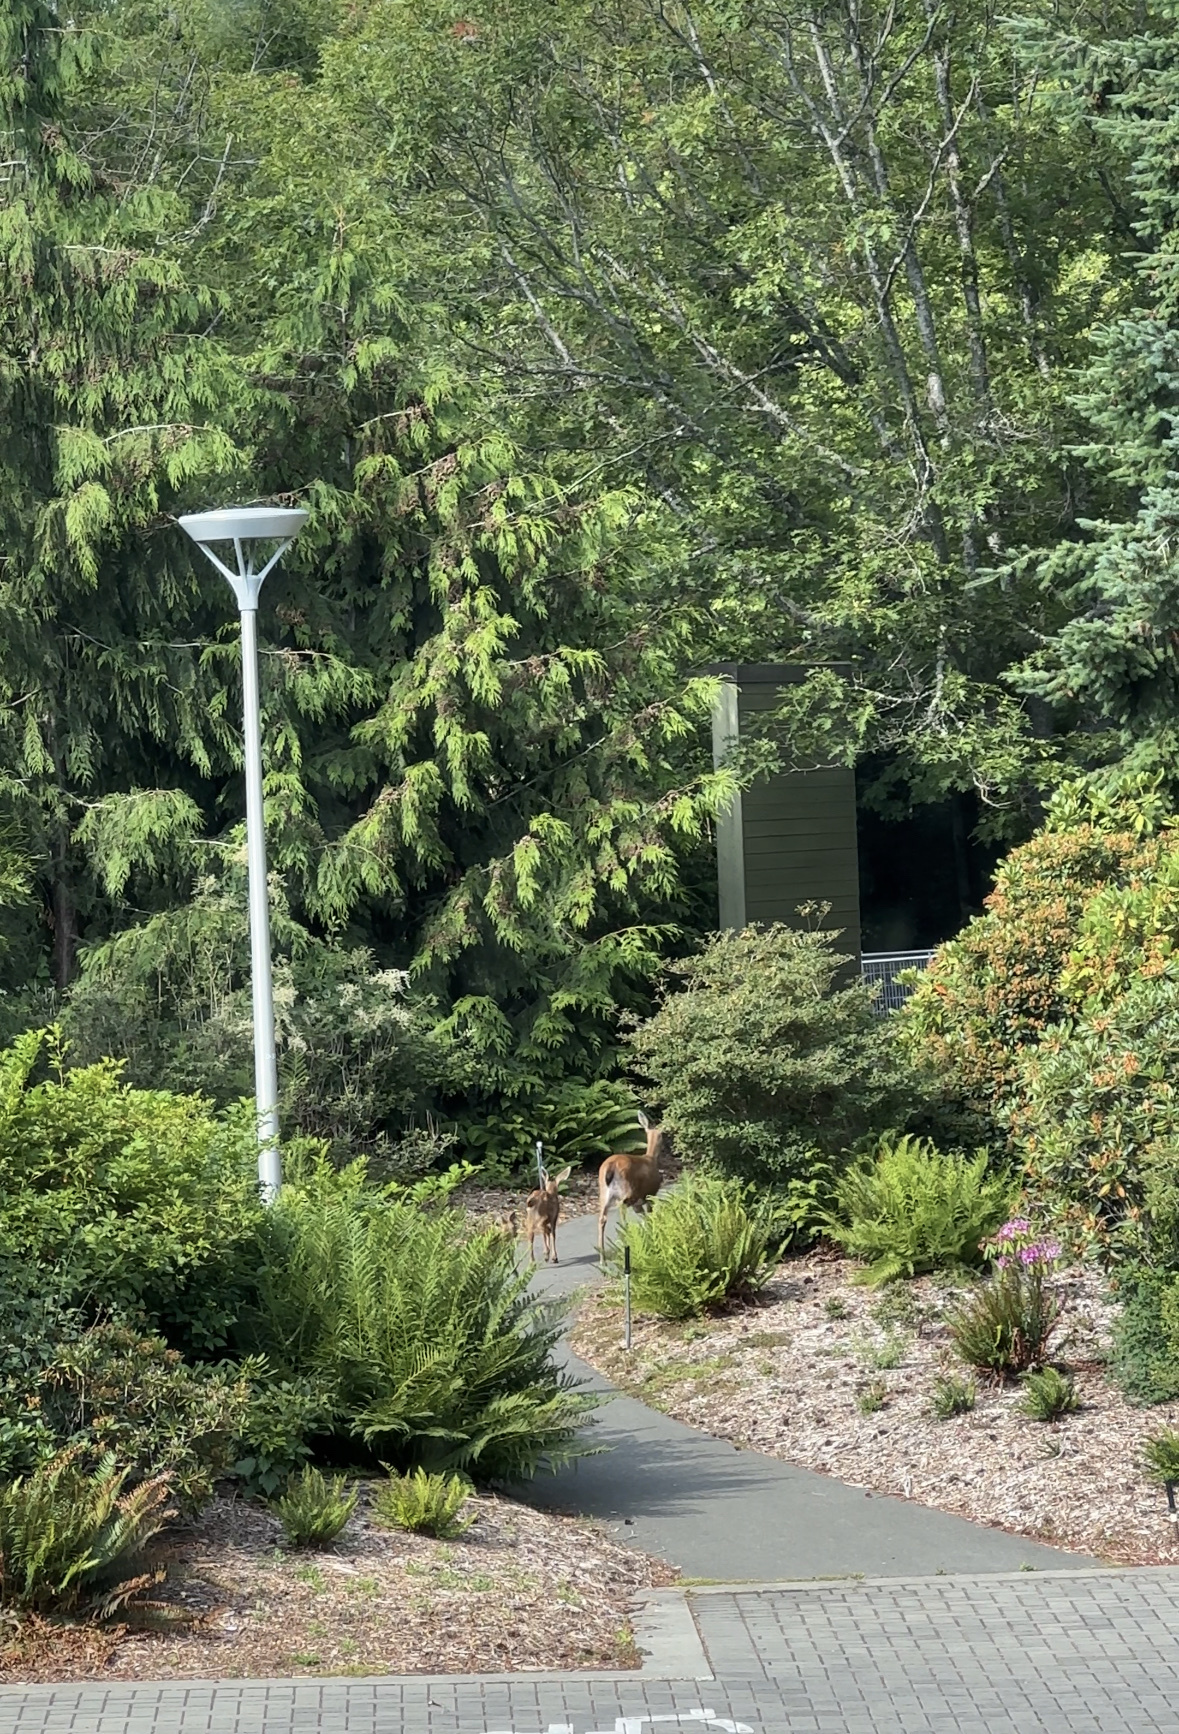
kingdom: Animalia
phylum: Chordata
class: Mammalia
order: Artiodactyla
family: Cervidae
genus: Odocoileus
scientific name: Odocoileus hemionus
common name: Mule deer
